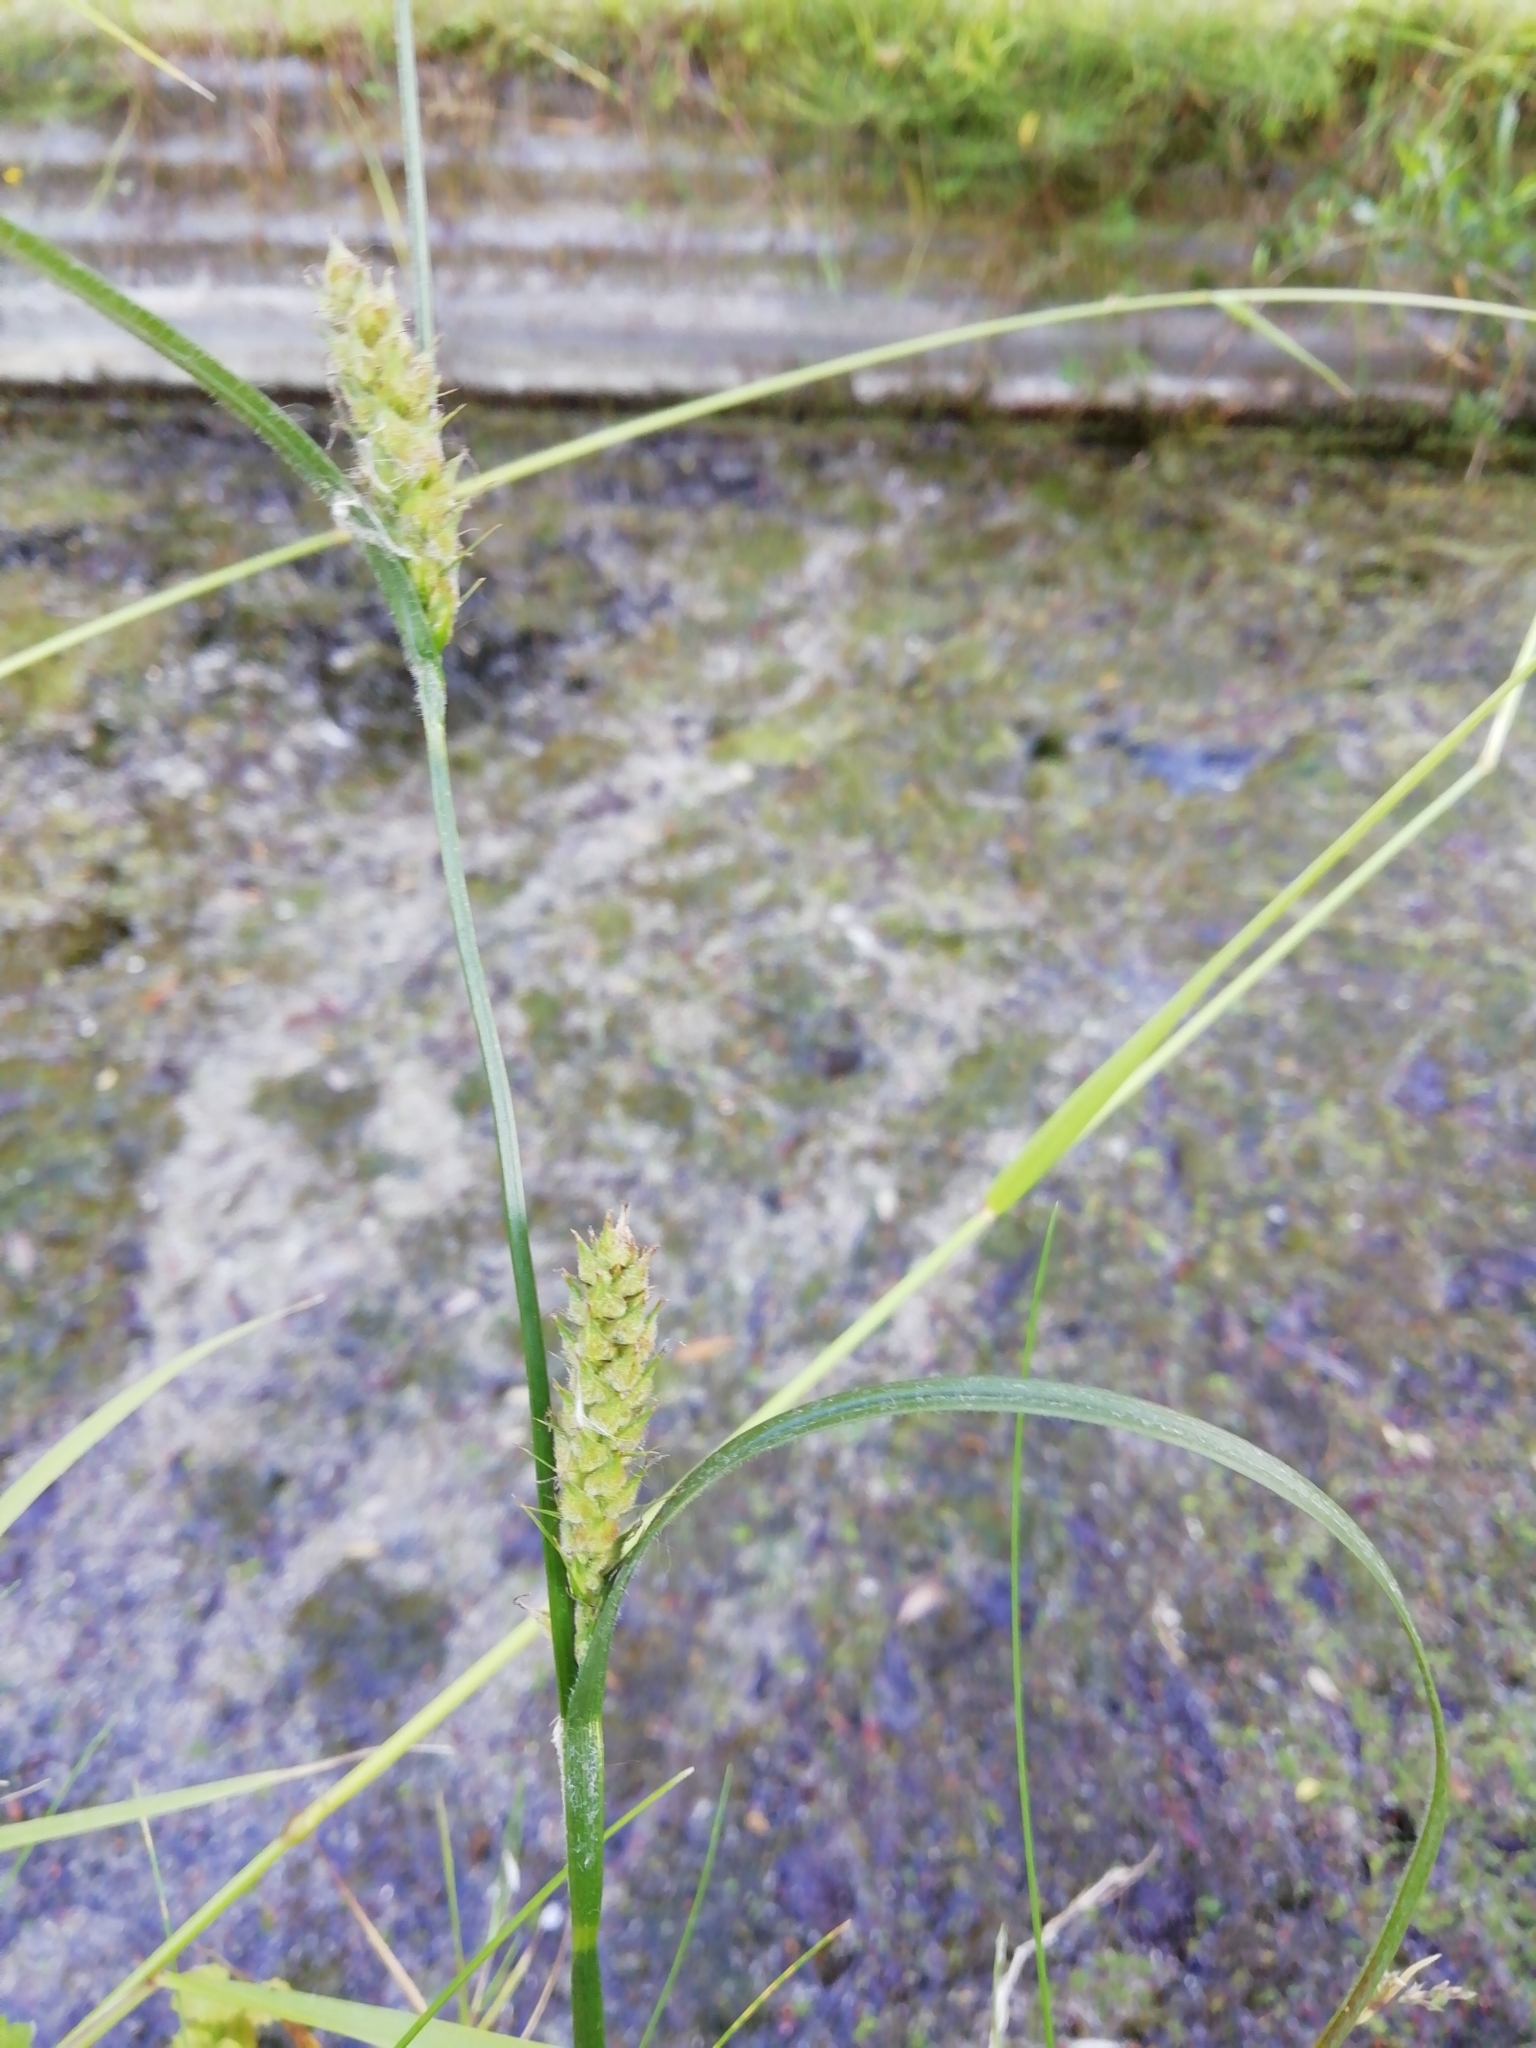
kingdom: Plantae
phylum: Tracheophyta
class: Liliopsida
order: Poales
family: Cyperaceae
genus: Carex
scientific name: Carex hirta
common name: Hairy sedge
